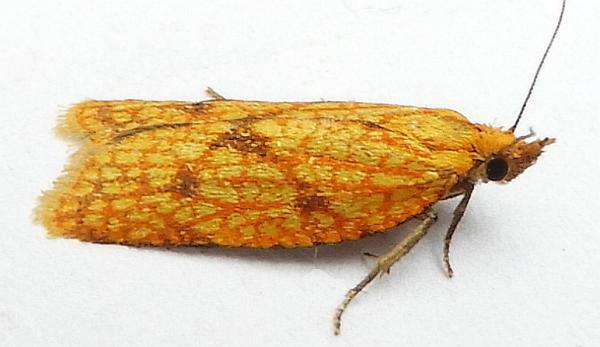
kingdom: Animalia
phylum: Arthropoda
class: Insecta
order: Lepidoptera
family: Tortricidae
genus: Sparganothis
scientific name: Sparganothis sulfureana
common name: Sparganothis fruitworm moth
